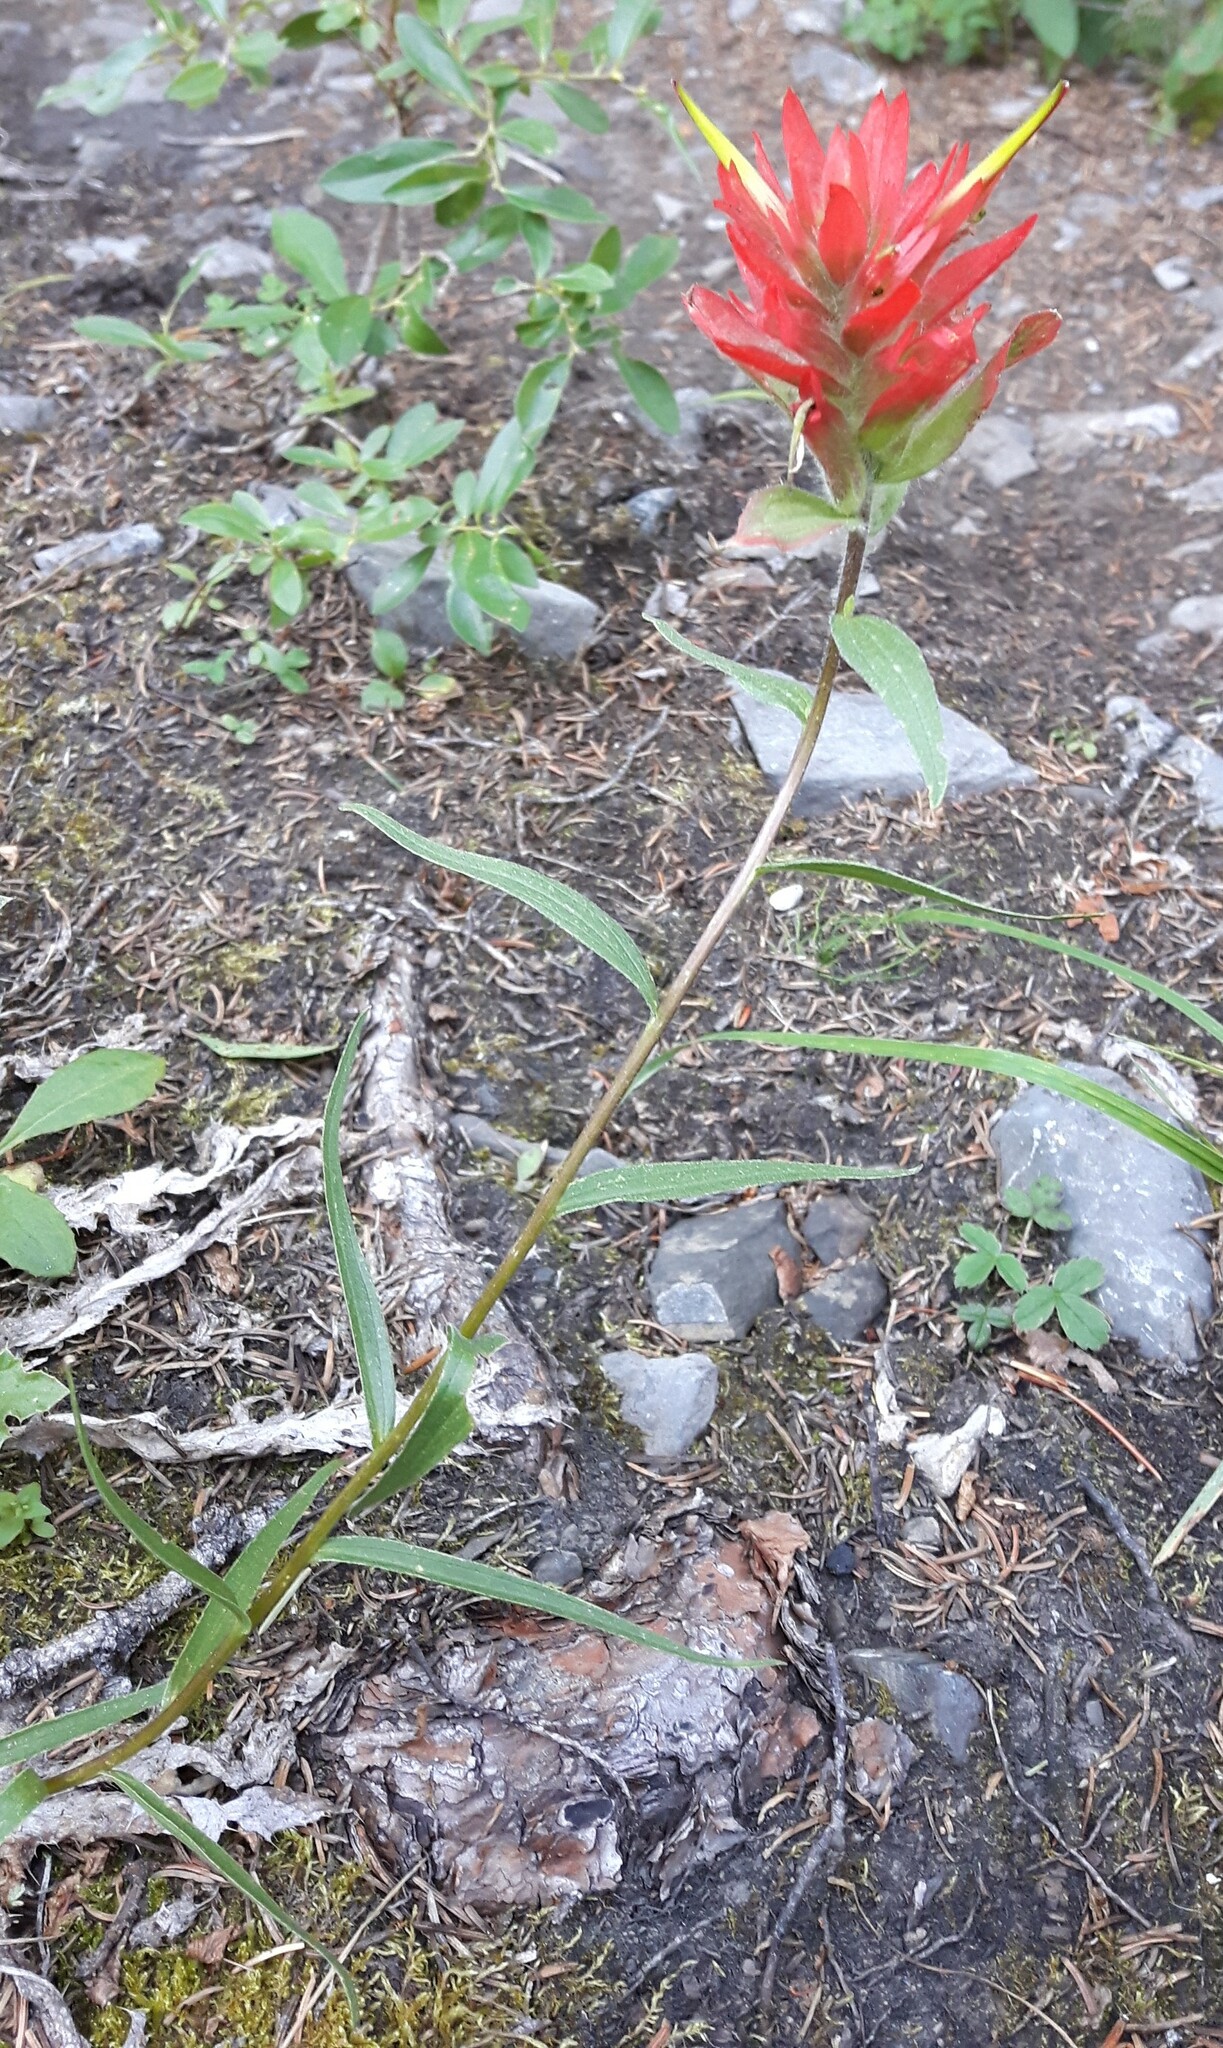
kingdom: Plantae
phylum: Tracheophyta
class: Magnoliopsida
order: Lamiales
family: Orobanchaceae
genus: Castilleja
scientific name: Castilleja miniata
